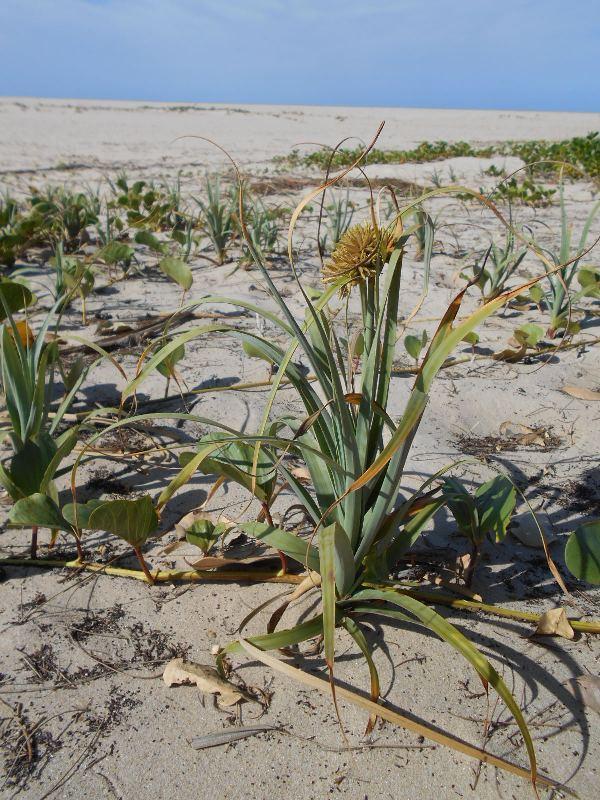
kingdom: Plantae
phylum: Tracheophyta
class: Liliopsida
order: Poales
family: Cyperaceae
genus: Cyperus
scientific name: Cyperus crassipes
